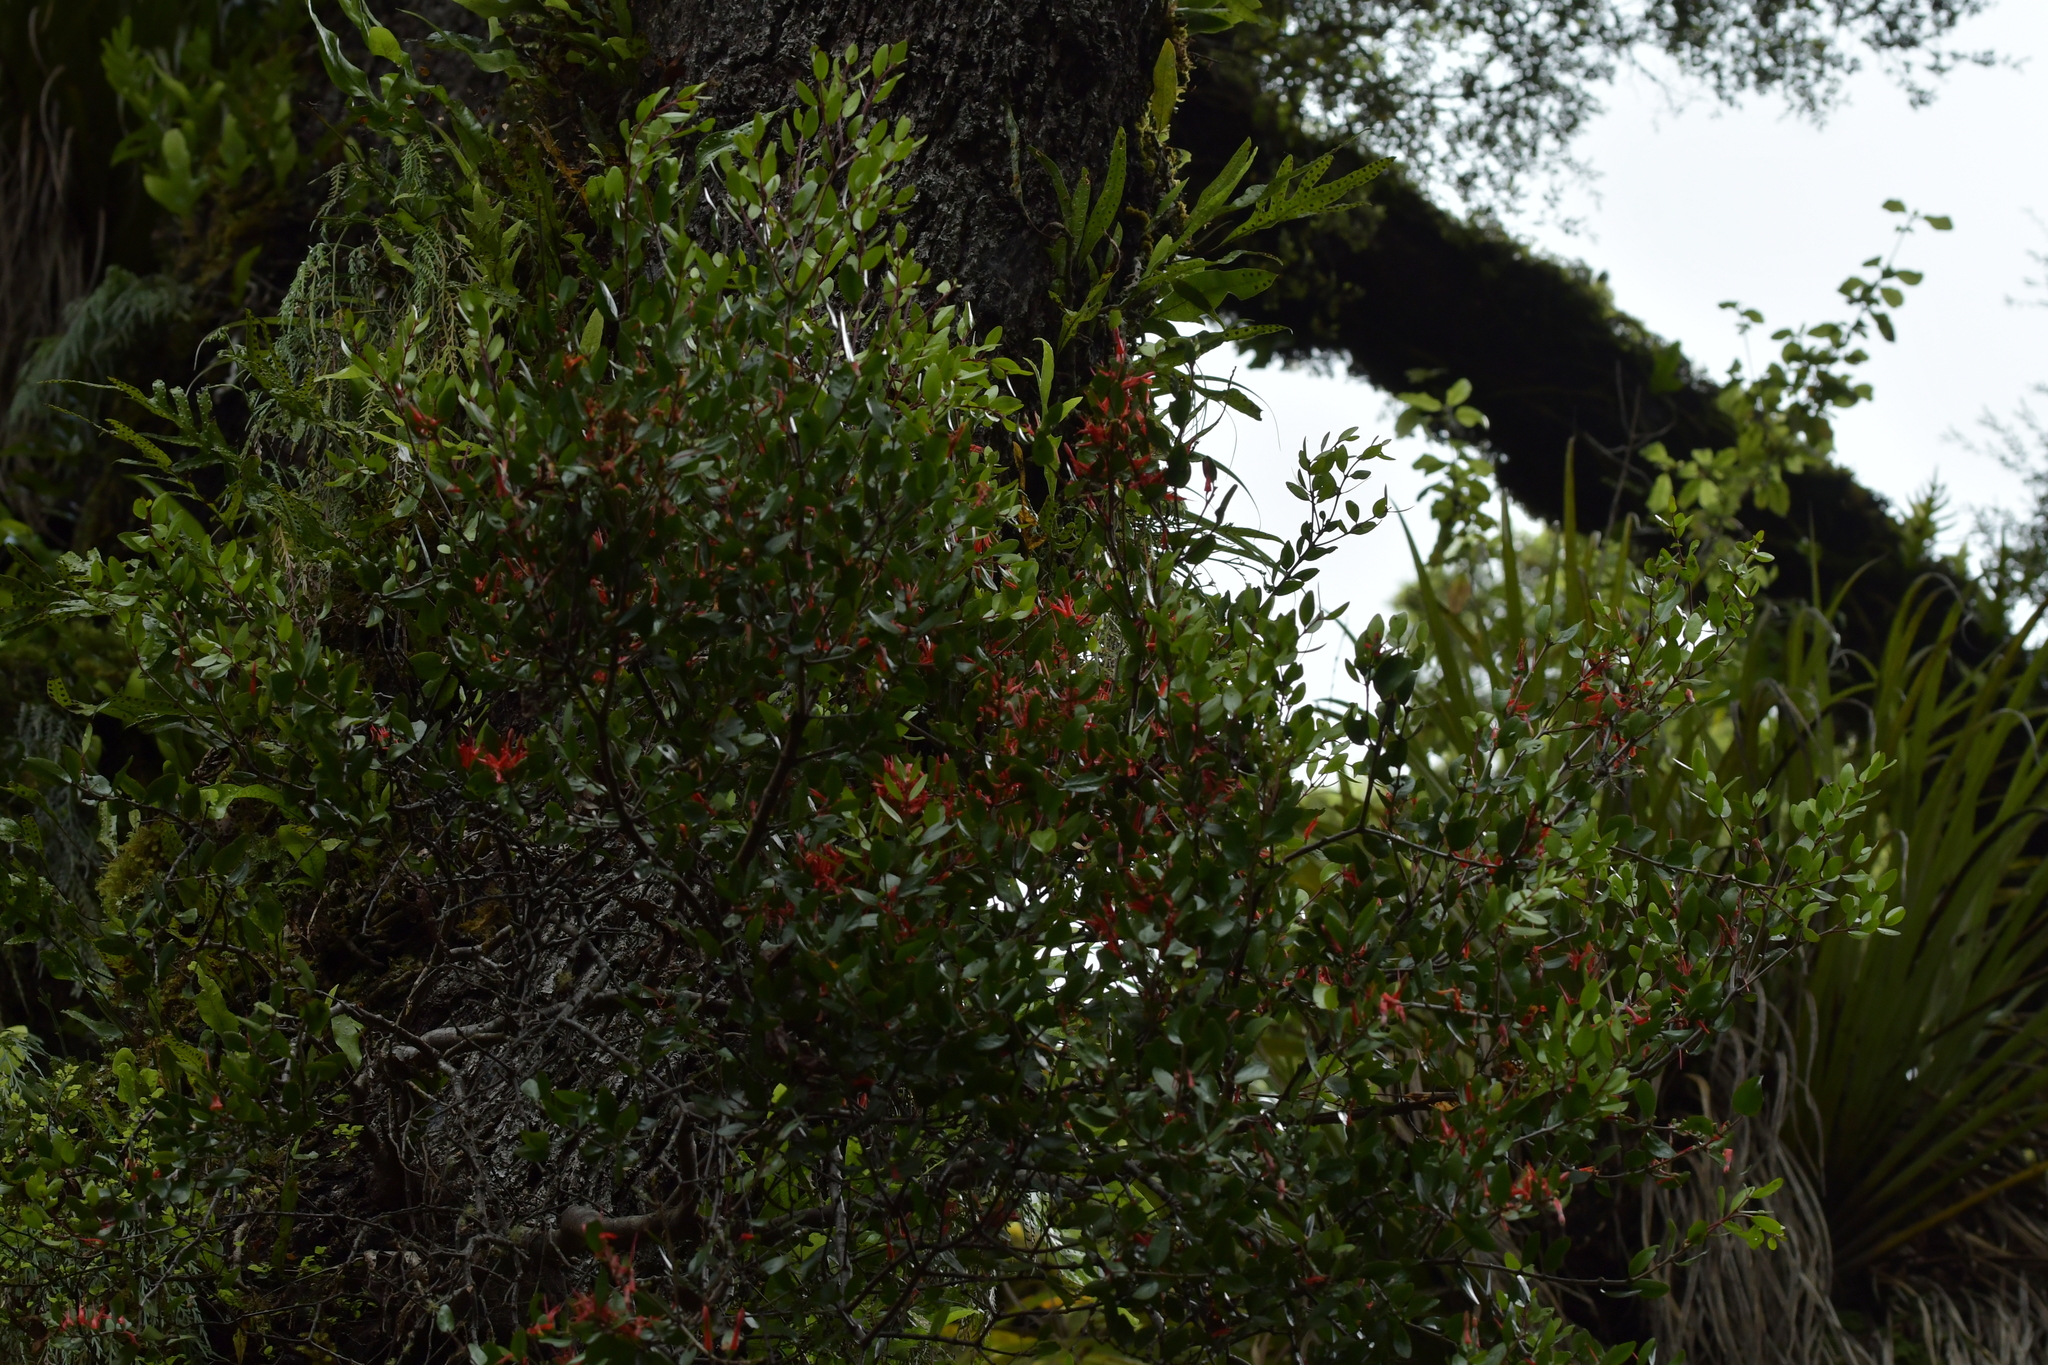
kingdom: Plantae
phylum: Tracheophyta
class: Magnoliopsida
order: Santalales
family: Loranthaceae
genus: Peraxilla
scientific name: Peraxilla tetrapetala
